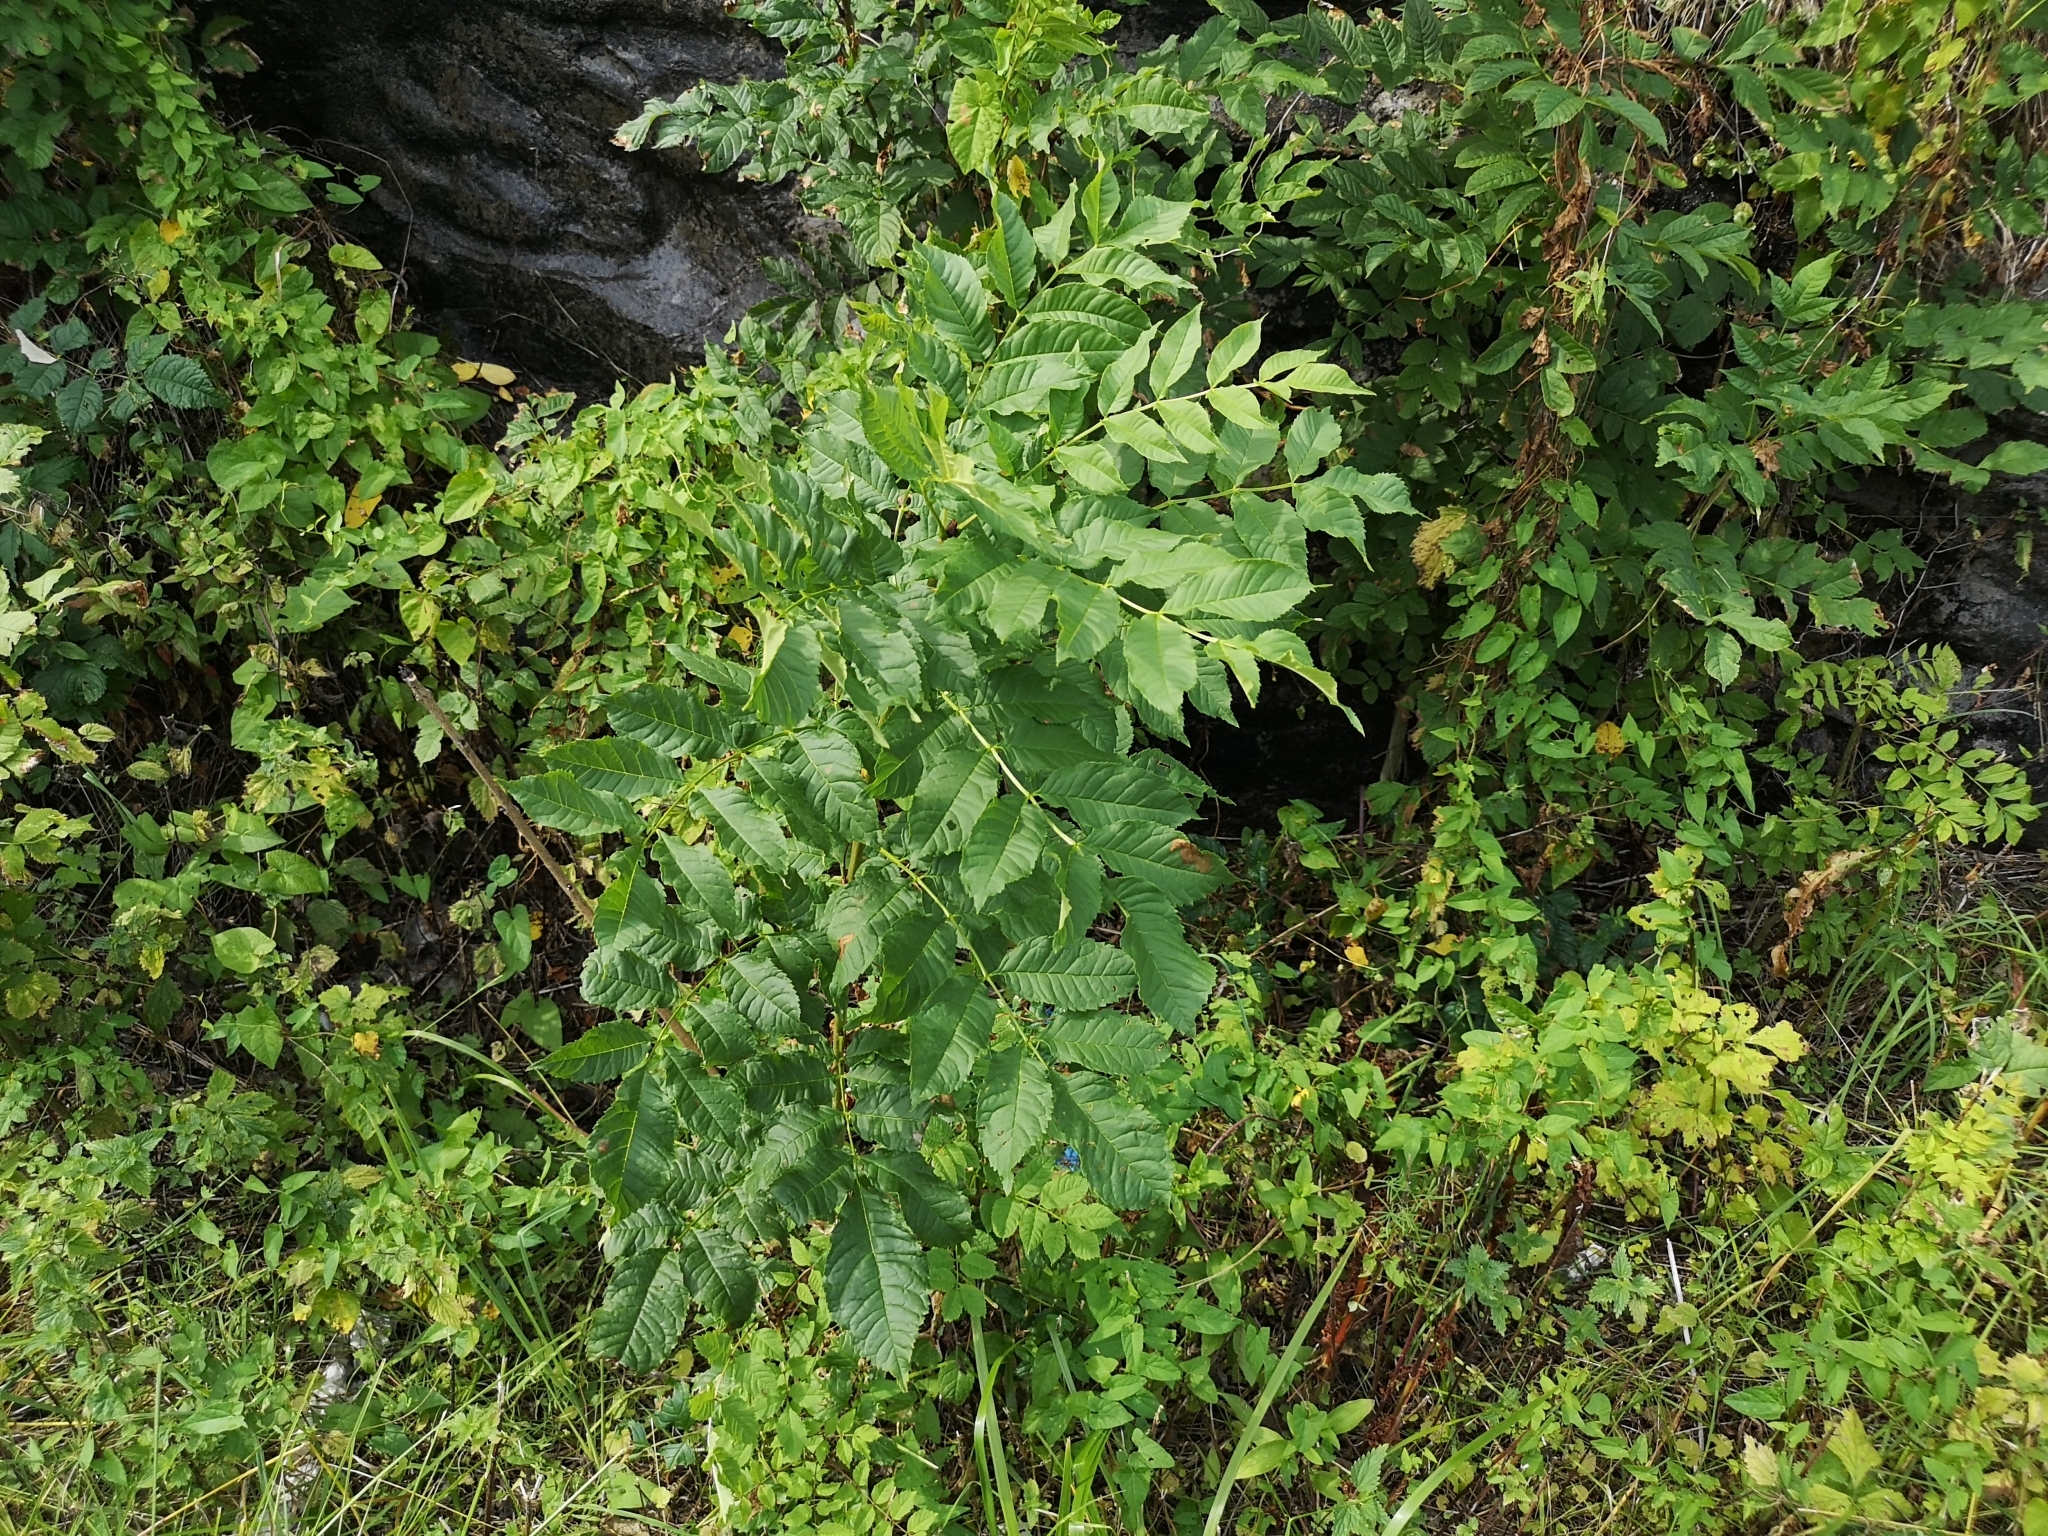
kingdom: Plantae
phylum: Tracheophyta
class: Magnoliopsida
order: Lamiales
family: Oleaceae
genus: Fraxinus
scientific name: Fraxinus excelsior
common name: European ash
